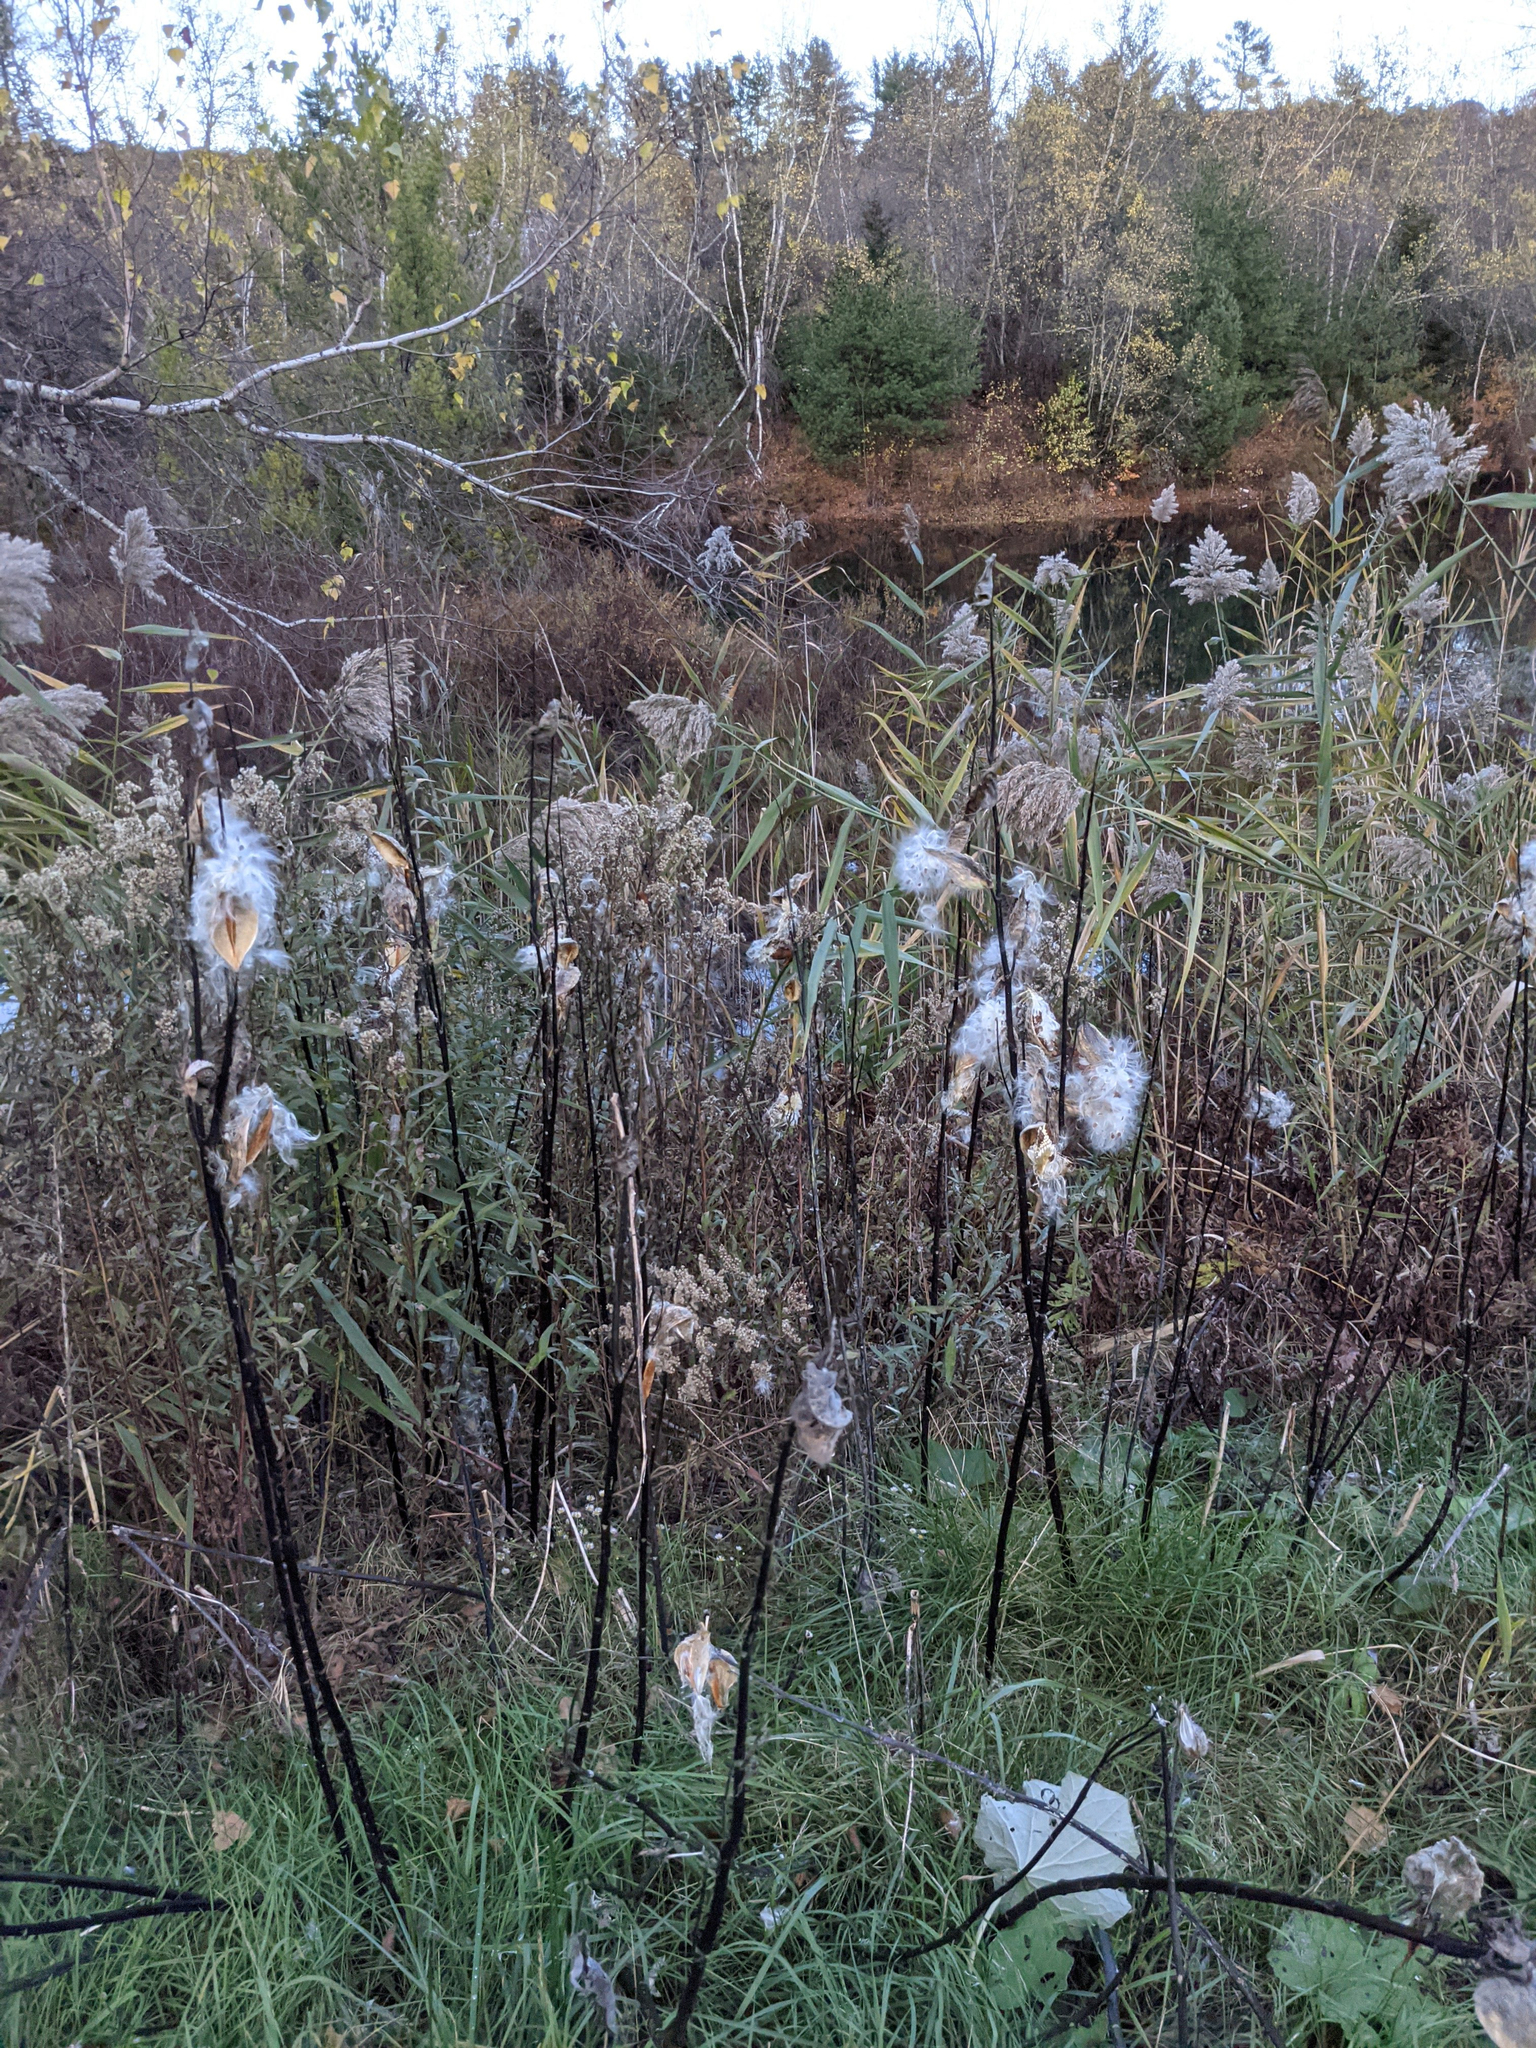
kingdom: Plantae
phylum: Tracheophyta
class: Magnoliopsida
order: Gentianales
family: Apocynaceae
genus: Asclepias
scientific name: Asclepias syriaca
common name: Common milkweed
